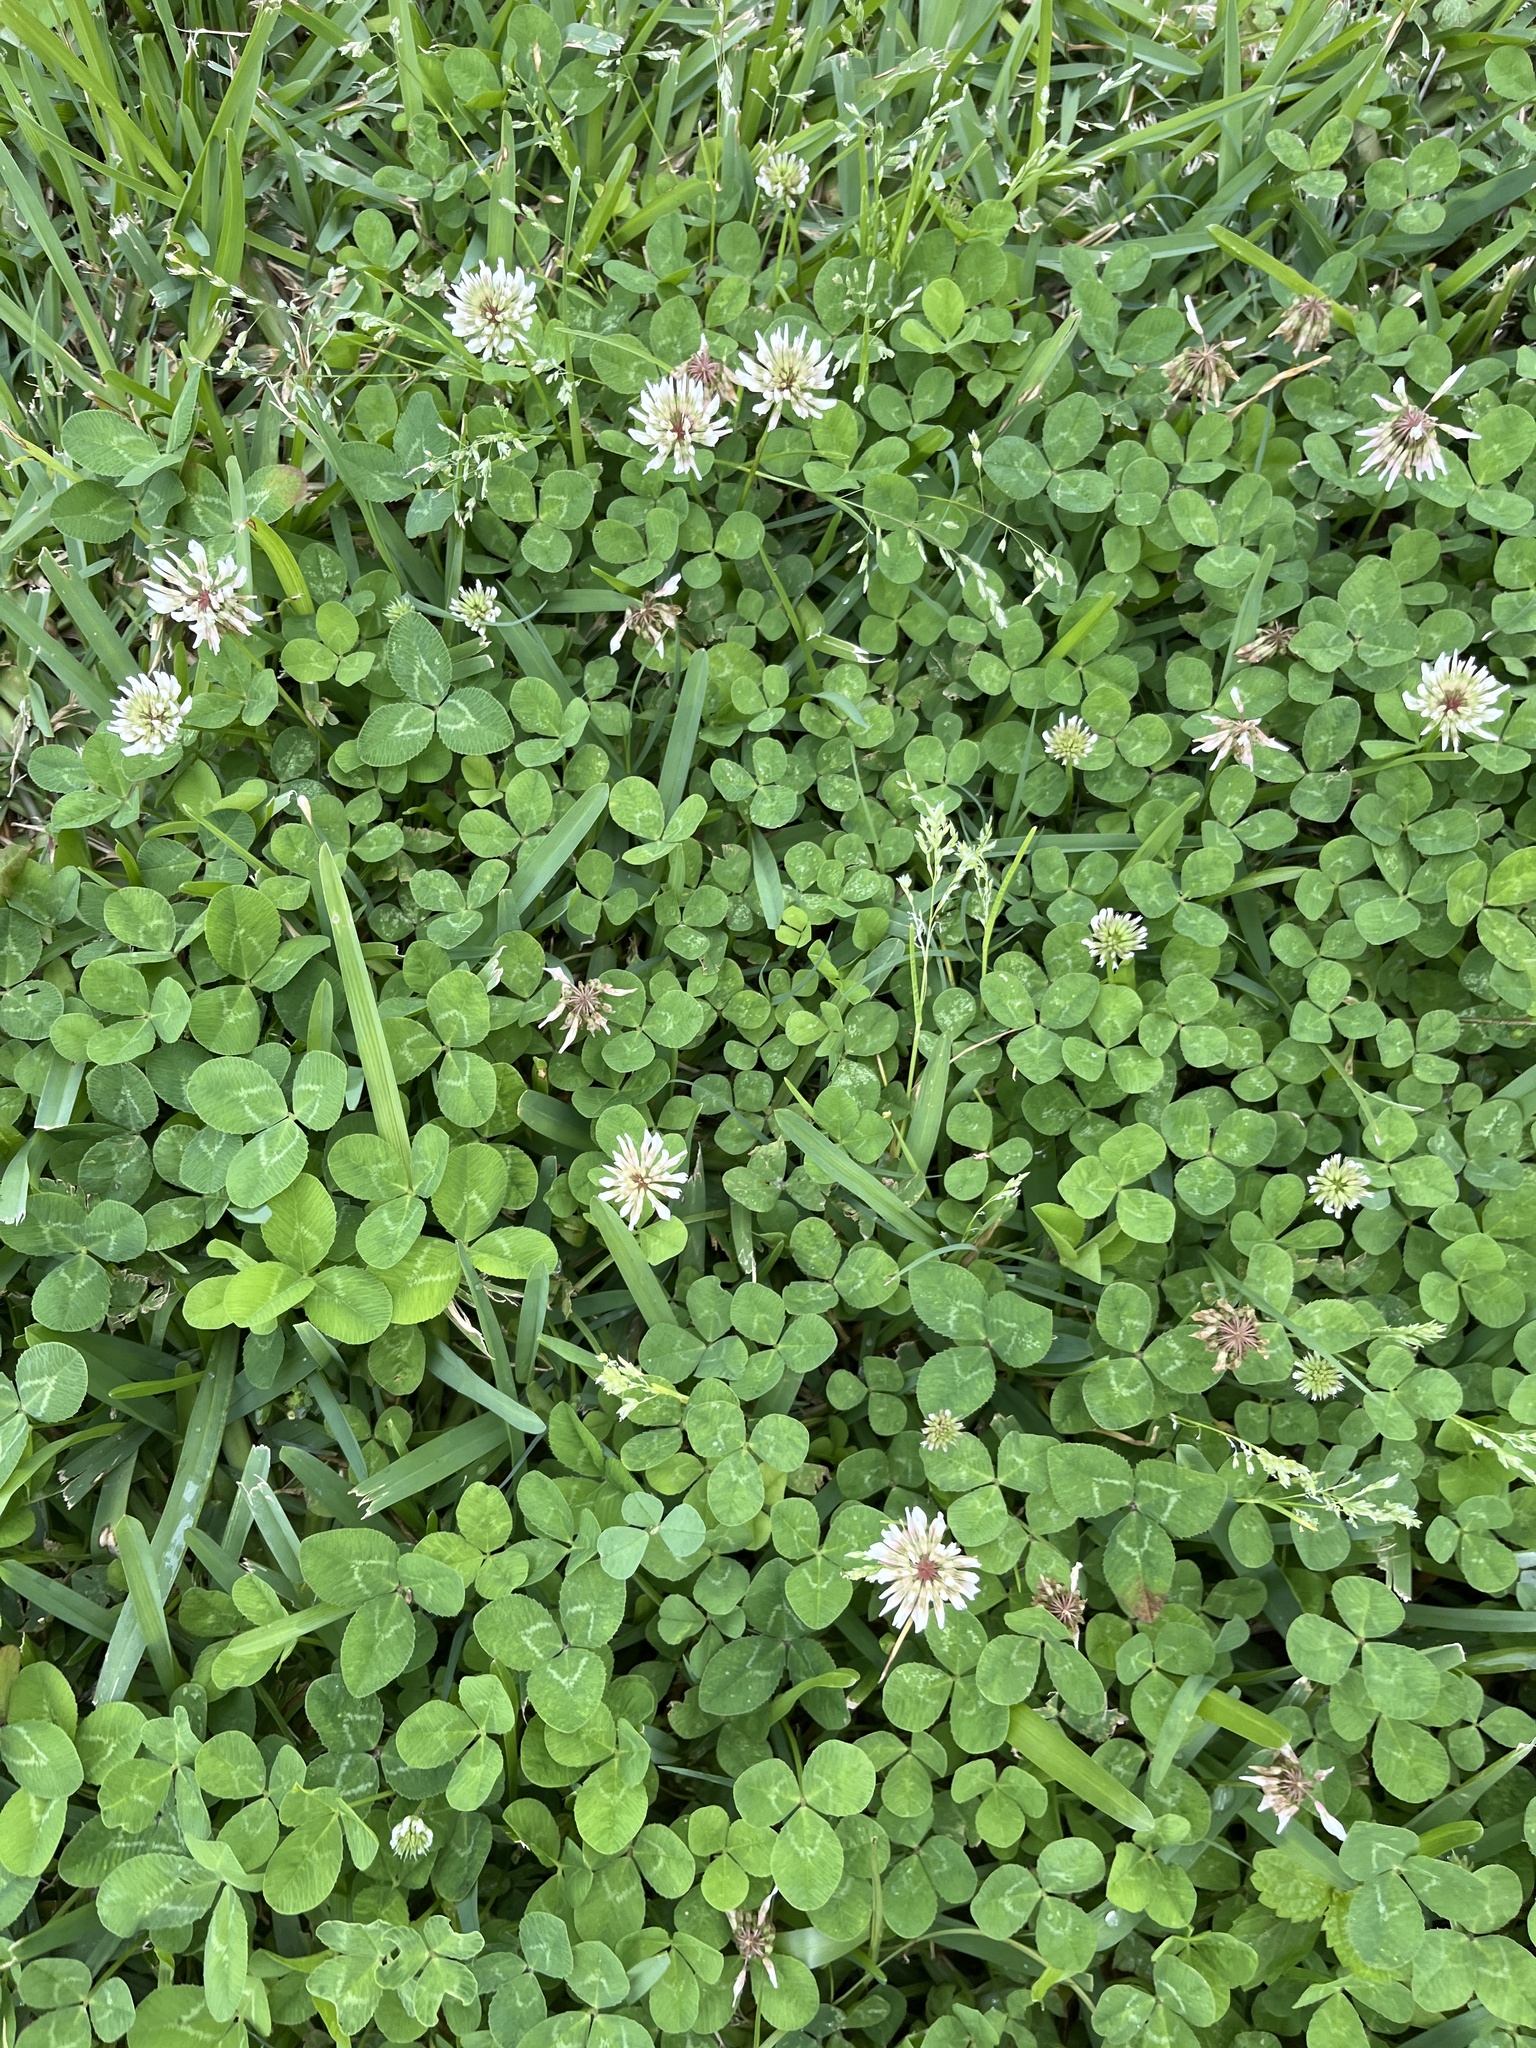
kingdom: Plantae
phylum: Tracheophyta
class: Magnoliopsida
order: Fabales
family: Fabaceae
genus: Trifolium
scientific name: Trifolium repens
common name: White clover
